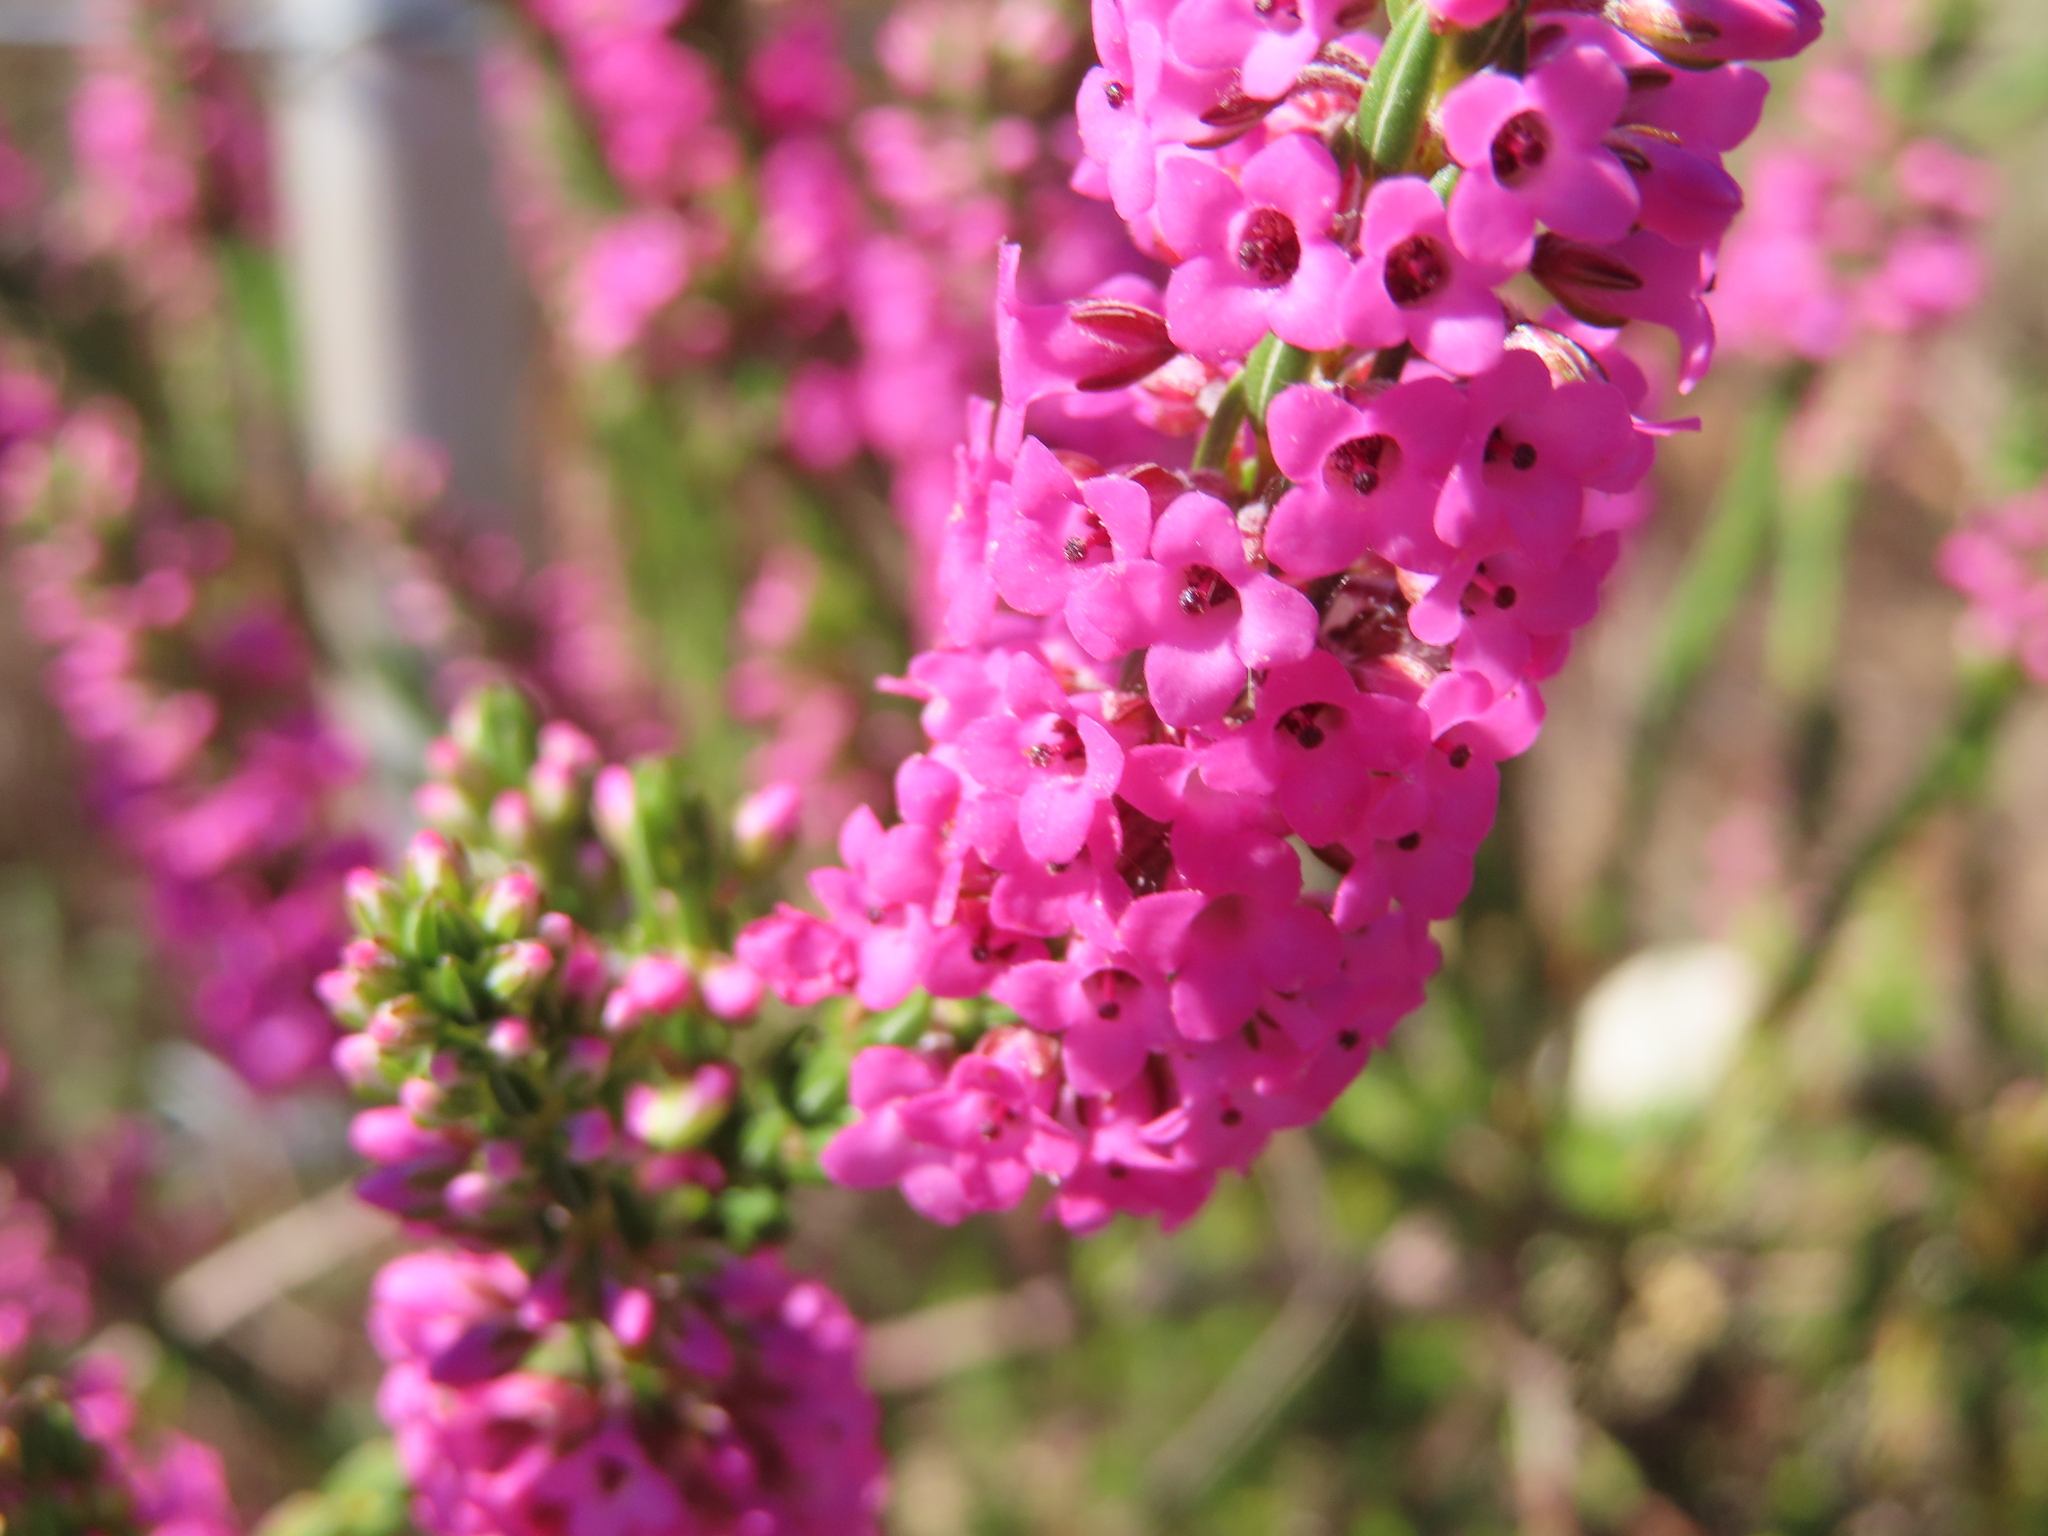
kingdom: Plantae
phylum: Tracheophyta
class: Magnoliopsida
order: Ericales
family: Ericaceae
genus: Erica
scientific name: Erica longiaristata
